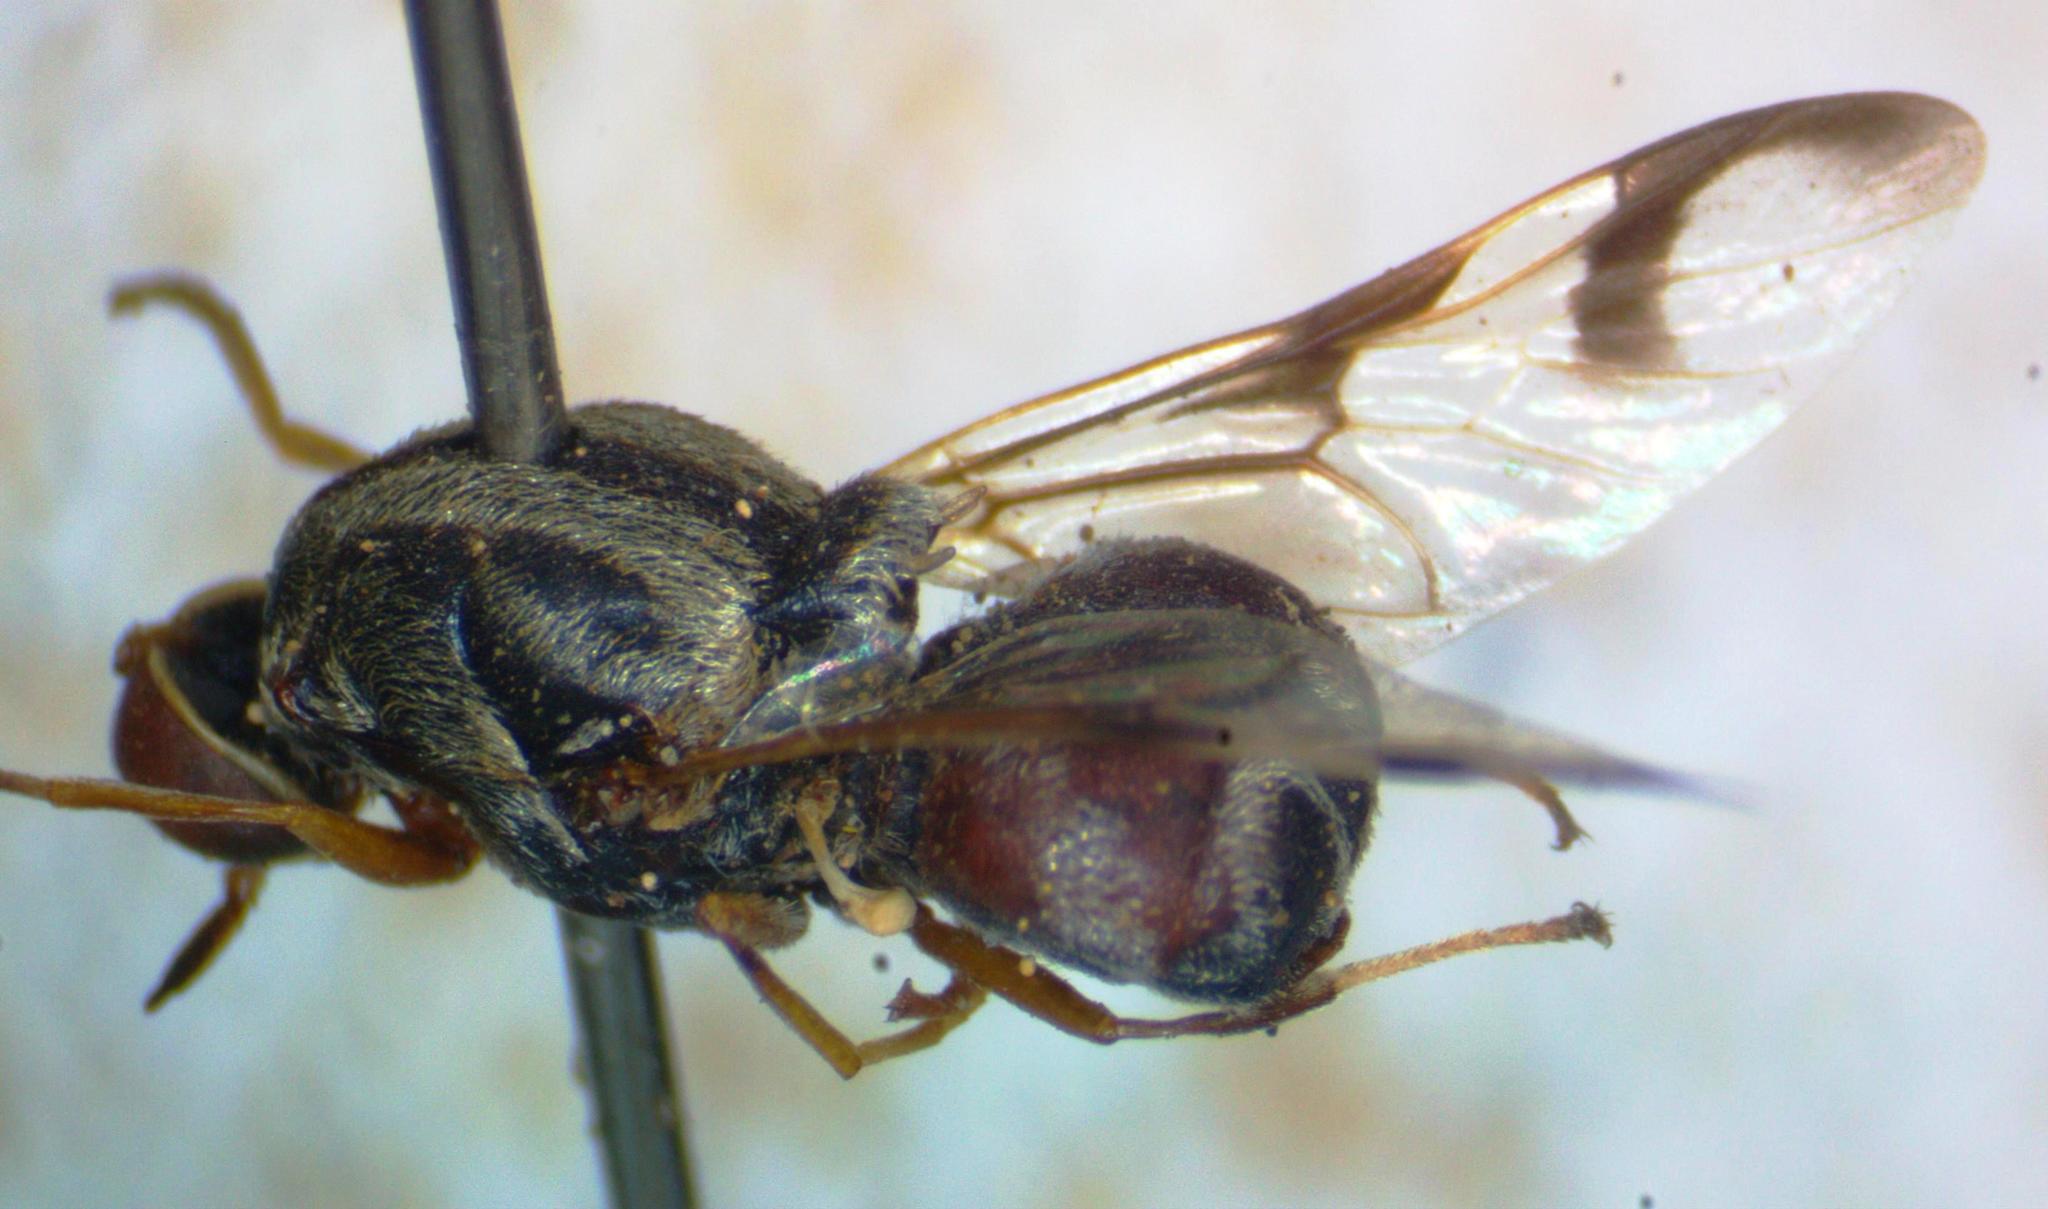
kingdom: Animalia
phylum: Arthropoda
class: Insecta
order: Diptera
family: Stratiomyidae
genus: Artemita
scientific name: Artemita podexargenteus
